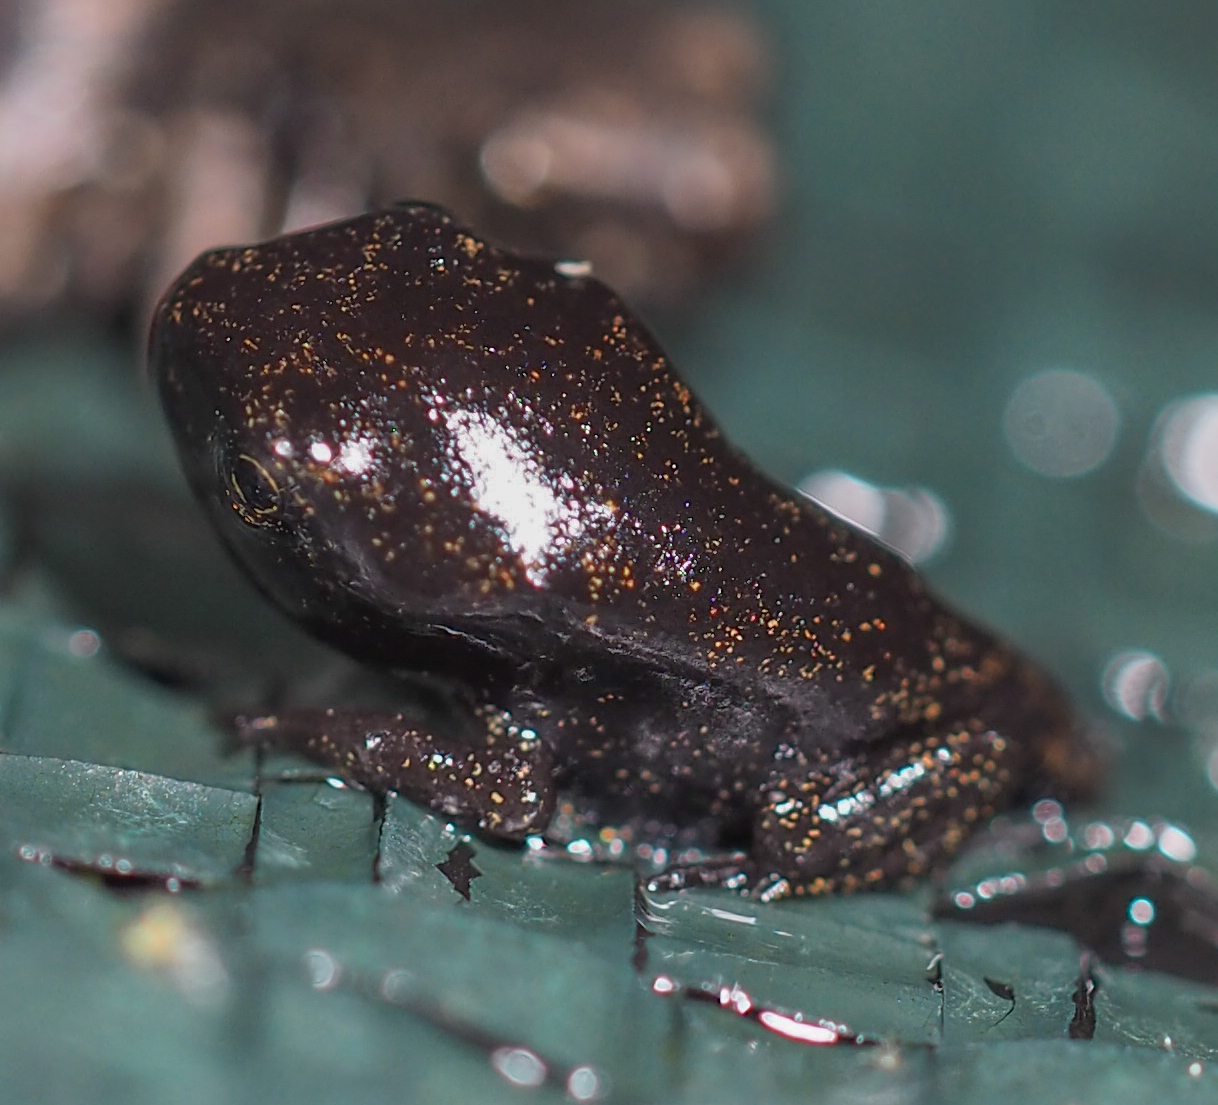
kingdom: Animalia
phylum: Chordata
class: Amphibia
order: Anura
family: Bufonidae
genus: Anaxyrus
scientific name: Anaxyrus americanus
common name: American toad
